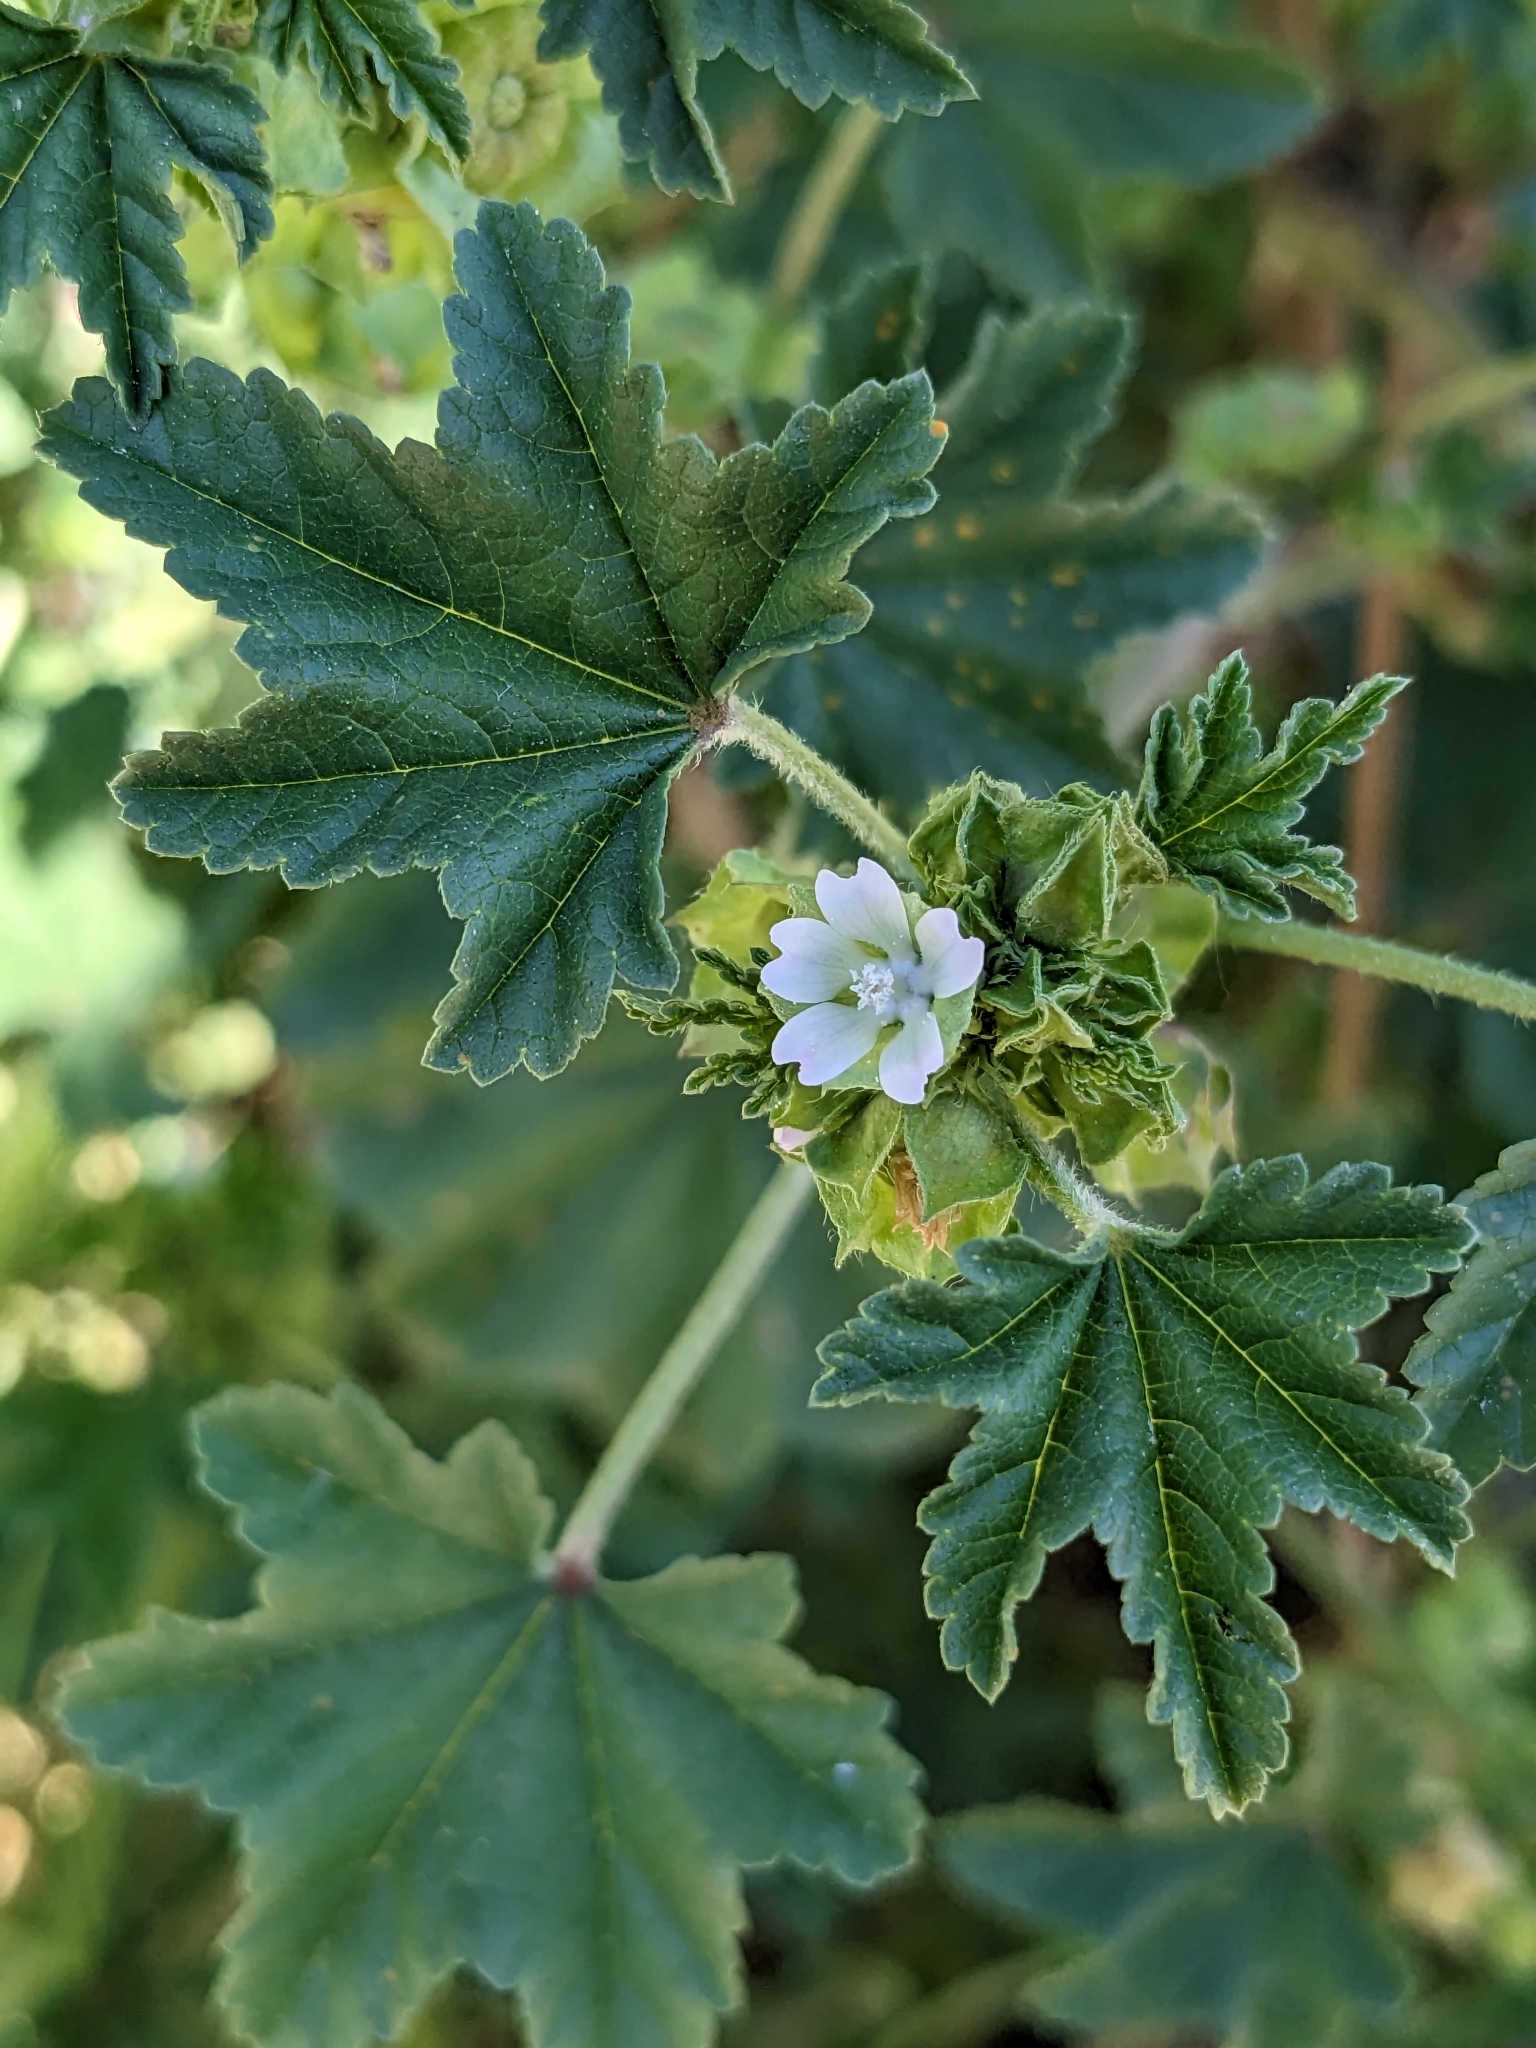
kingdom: Plantae
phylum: Tracheophyta
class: Magnoliopsida
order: Malvales
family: Malvaceae
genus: Malva
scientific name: Malva parviflora
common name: Least mallow
